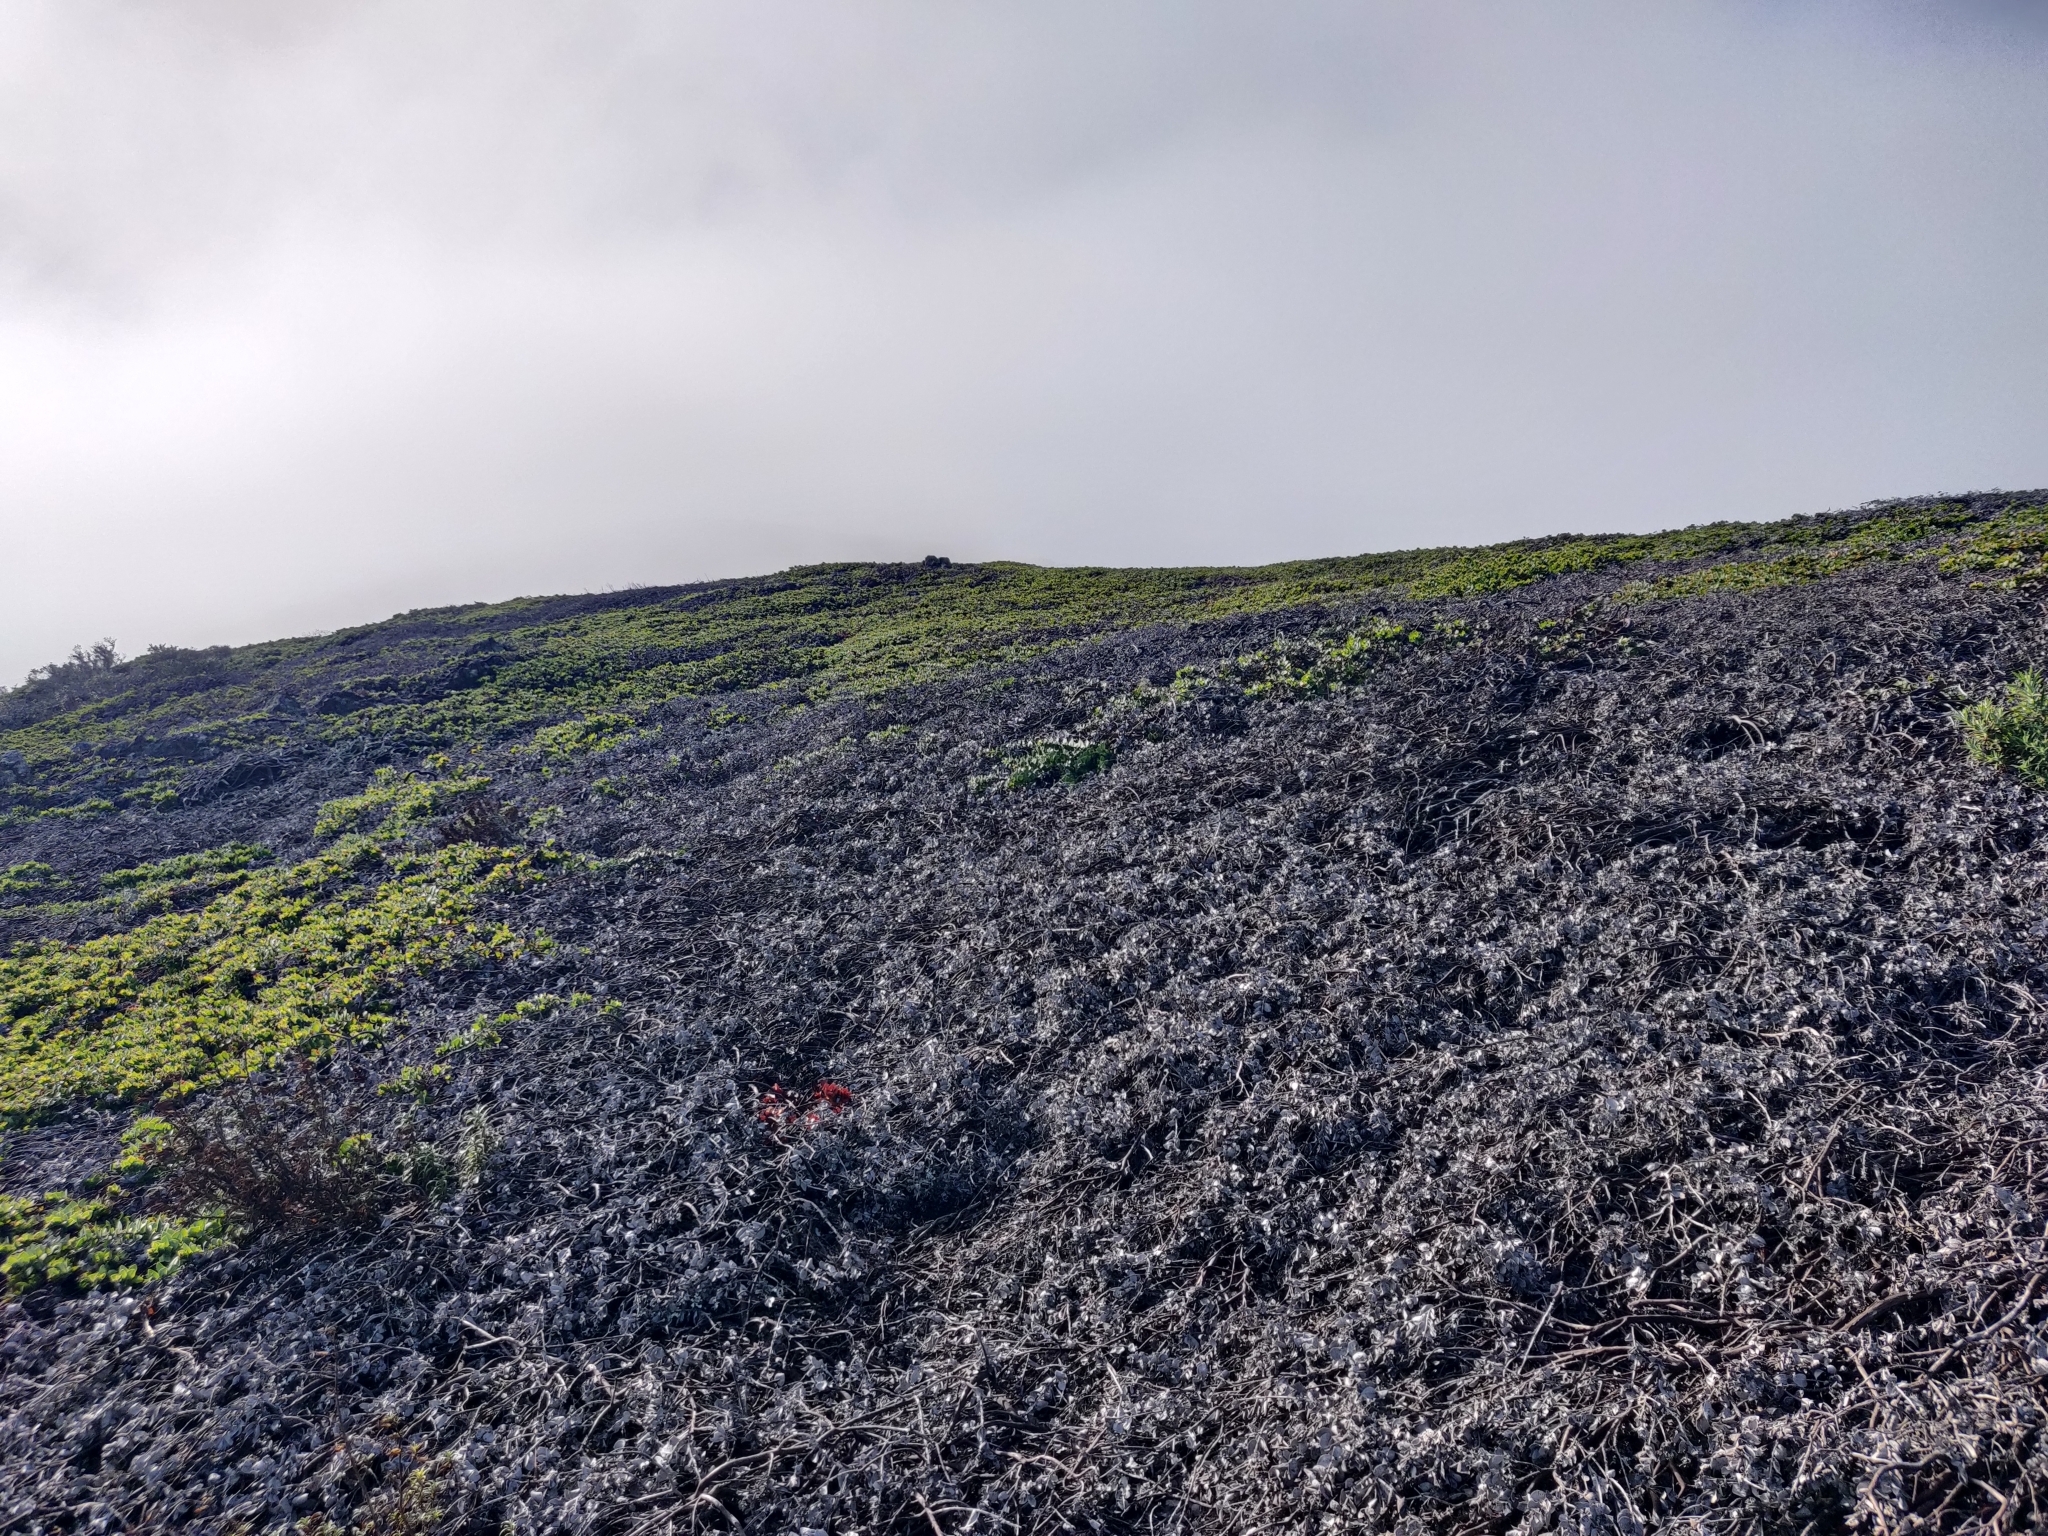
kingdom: Plantae
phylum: Tracheophyta
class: Magnoliopsida
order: Ericales
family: Ericaceae
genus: Arctostaphylos
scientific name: Arctostaphylos imbricata
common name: San bruno mountain manzanita
